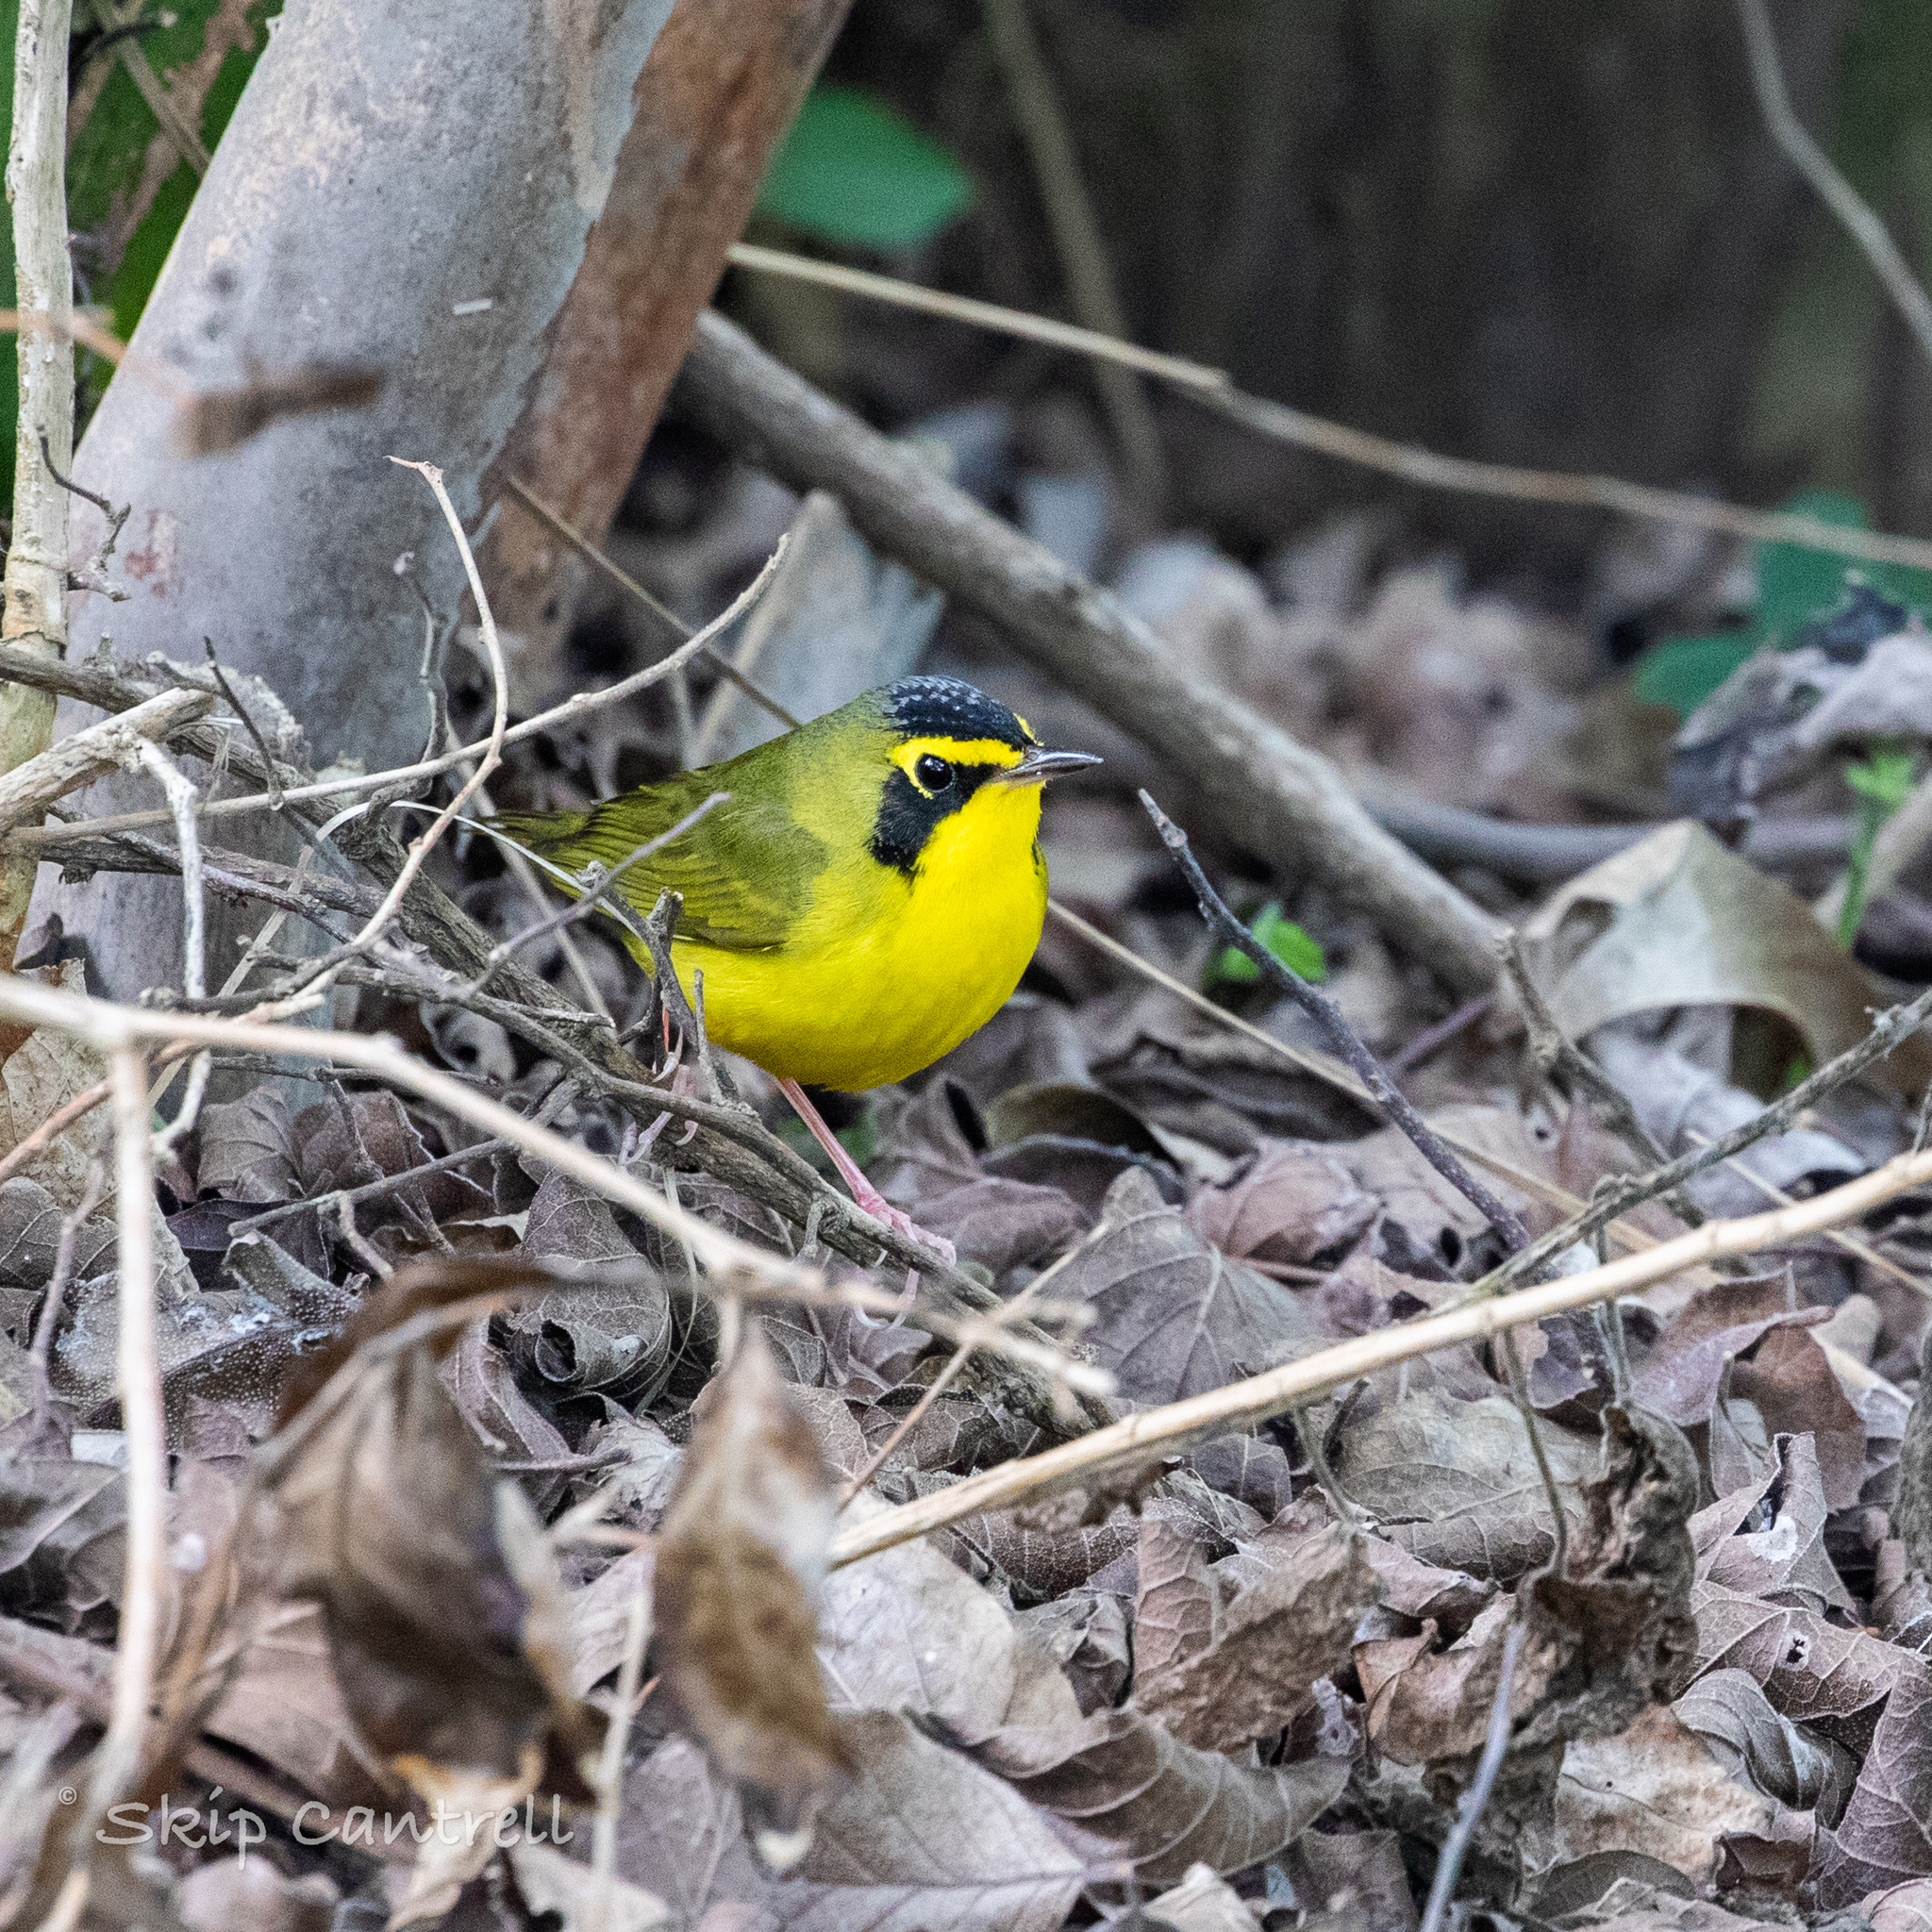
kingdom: Animalia
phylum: Chordata
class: Aves
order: Passeriformes
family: Parulidae
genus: Geothlypis
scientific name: Geothlypis formosa
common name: Kentucky warbler
